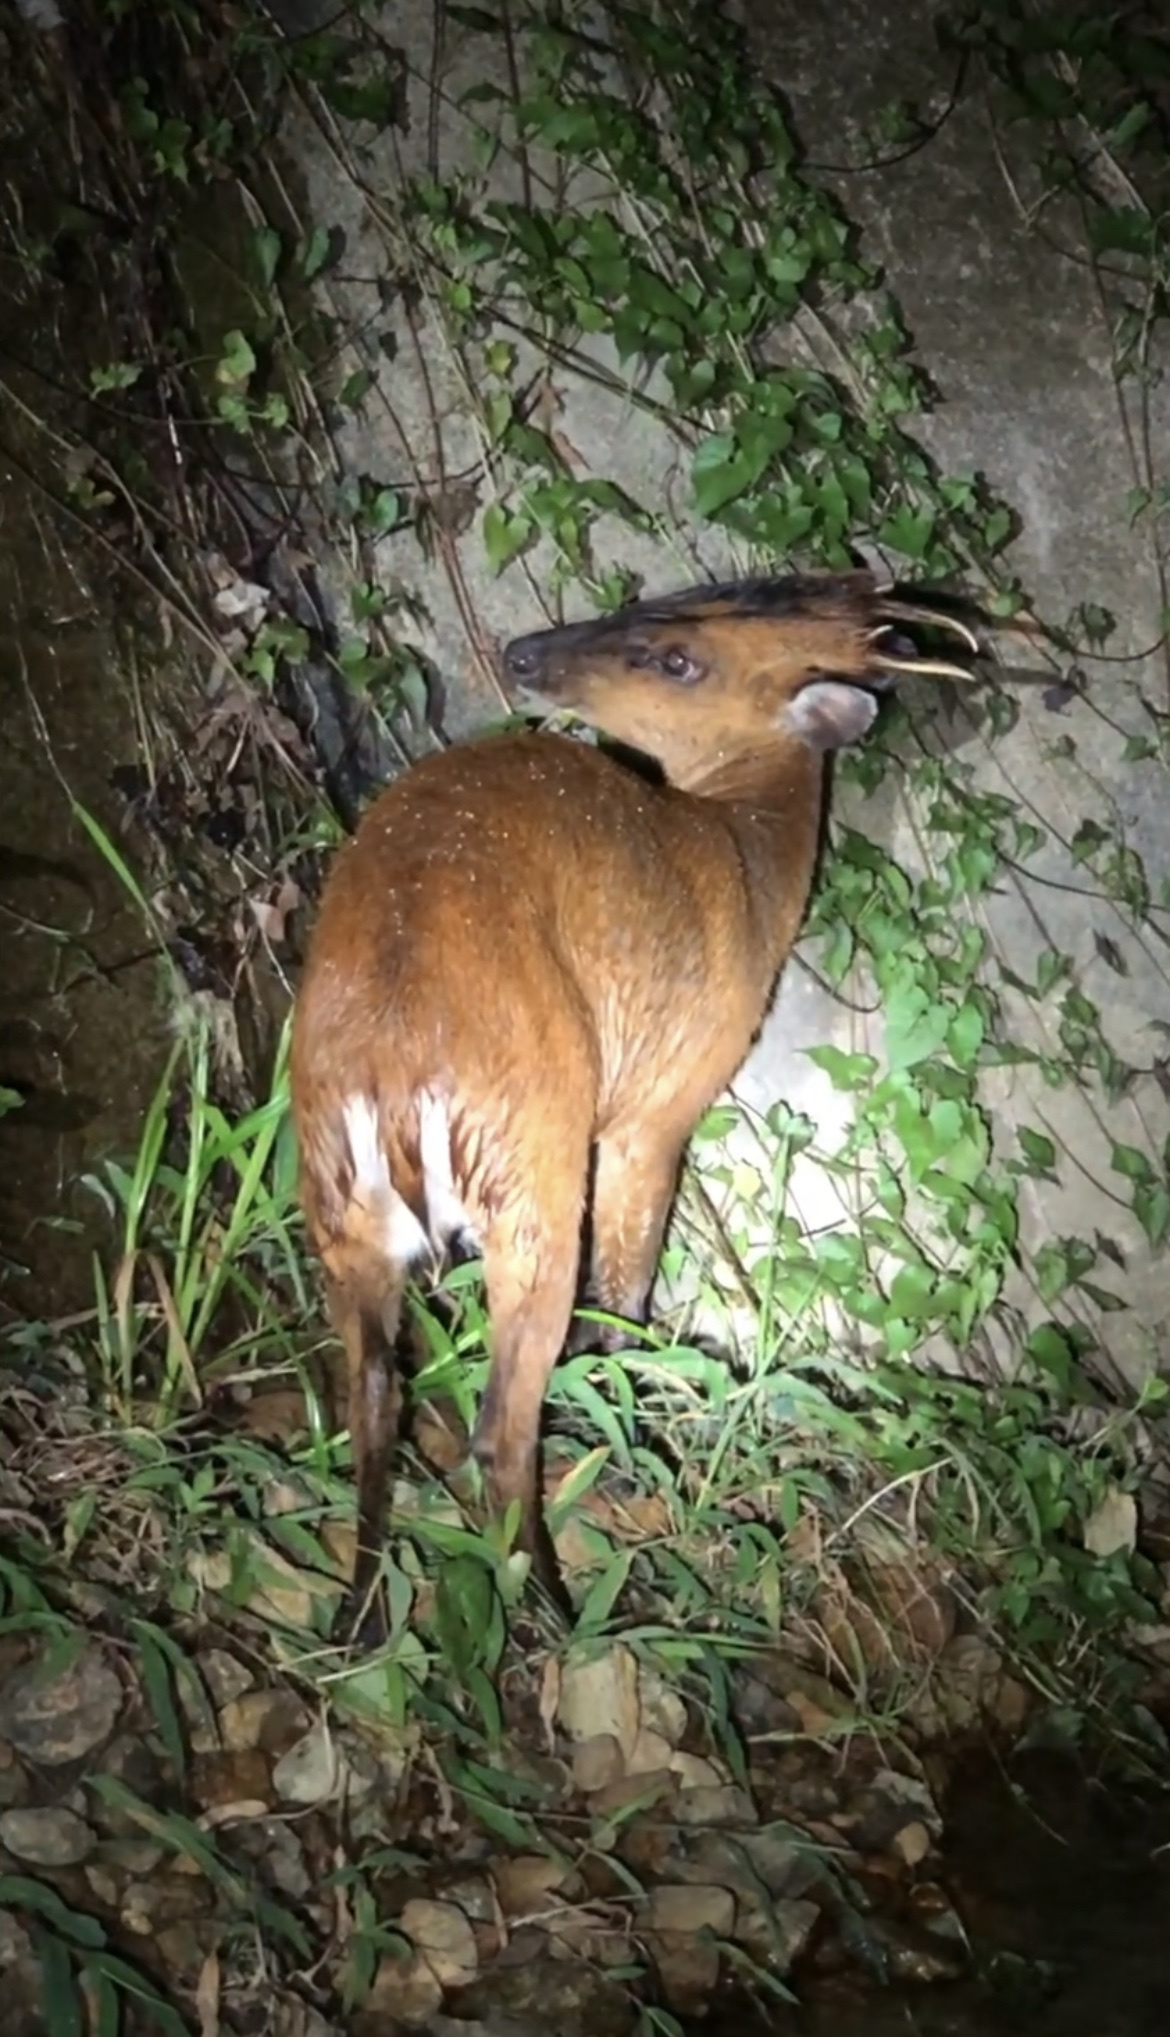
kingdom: Animalia
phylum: Chordata
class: Mammalia
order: Artiodactyla
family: Cervidae
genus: Muntiacus
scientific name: Muntiacus muntjak
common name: Indian muntjac
